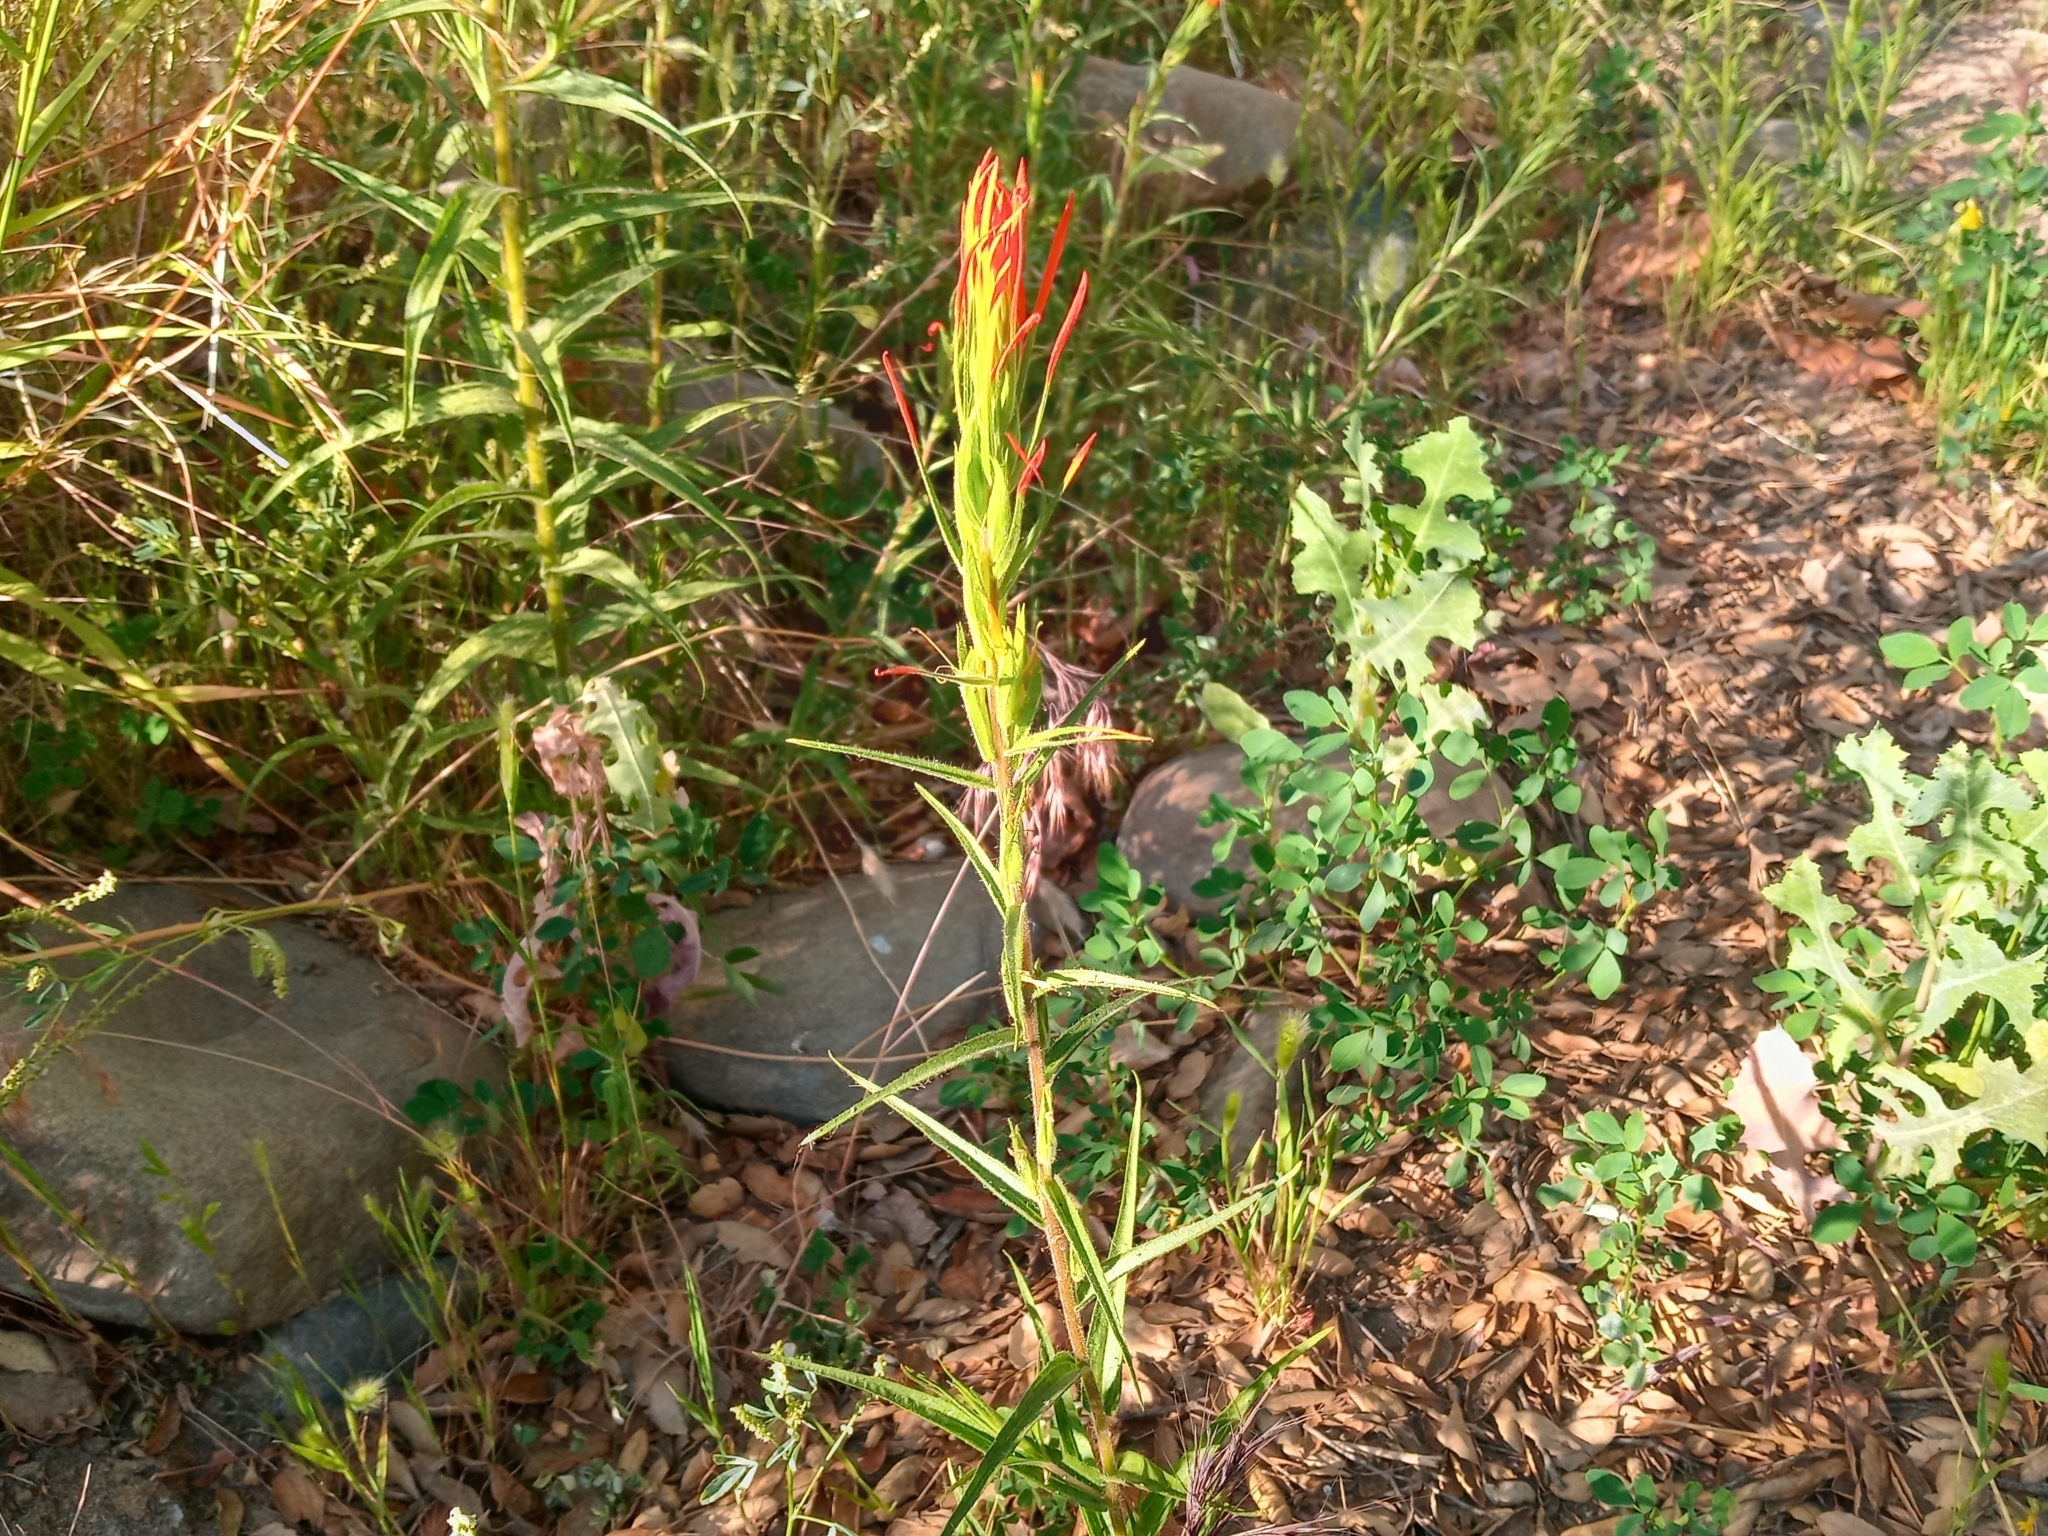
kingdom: Plantae
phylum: Tracheophyta
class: Magnoliopsida
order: Lamiales
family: Orobanchaceae
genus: Castilleja
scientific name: Castilleja minor
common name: Seep paintbrush
